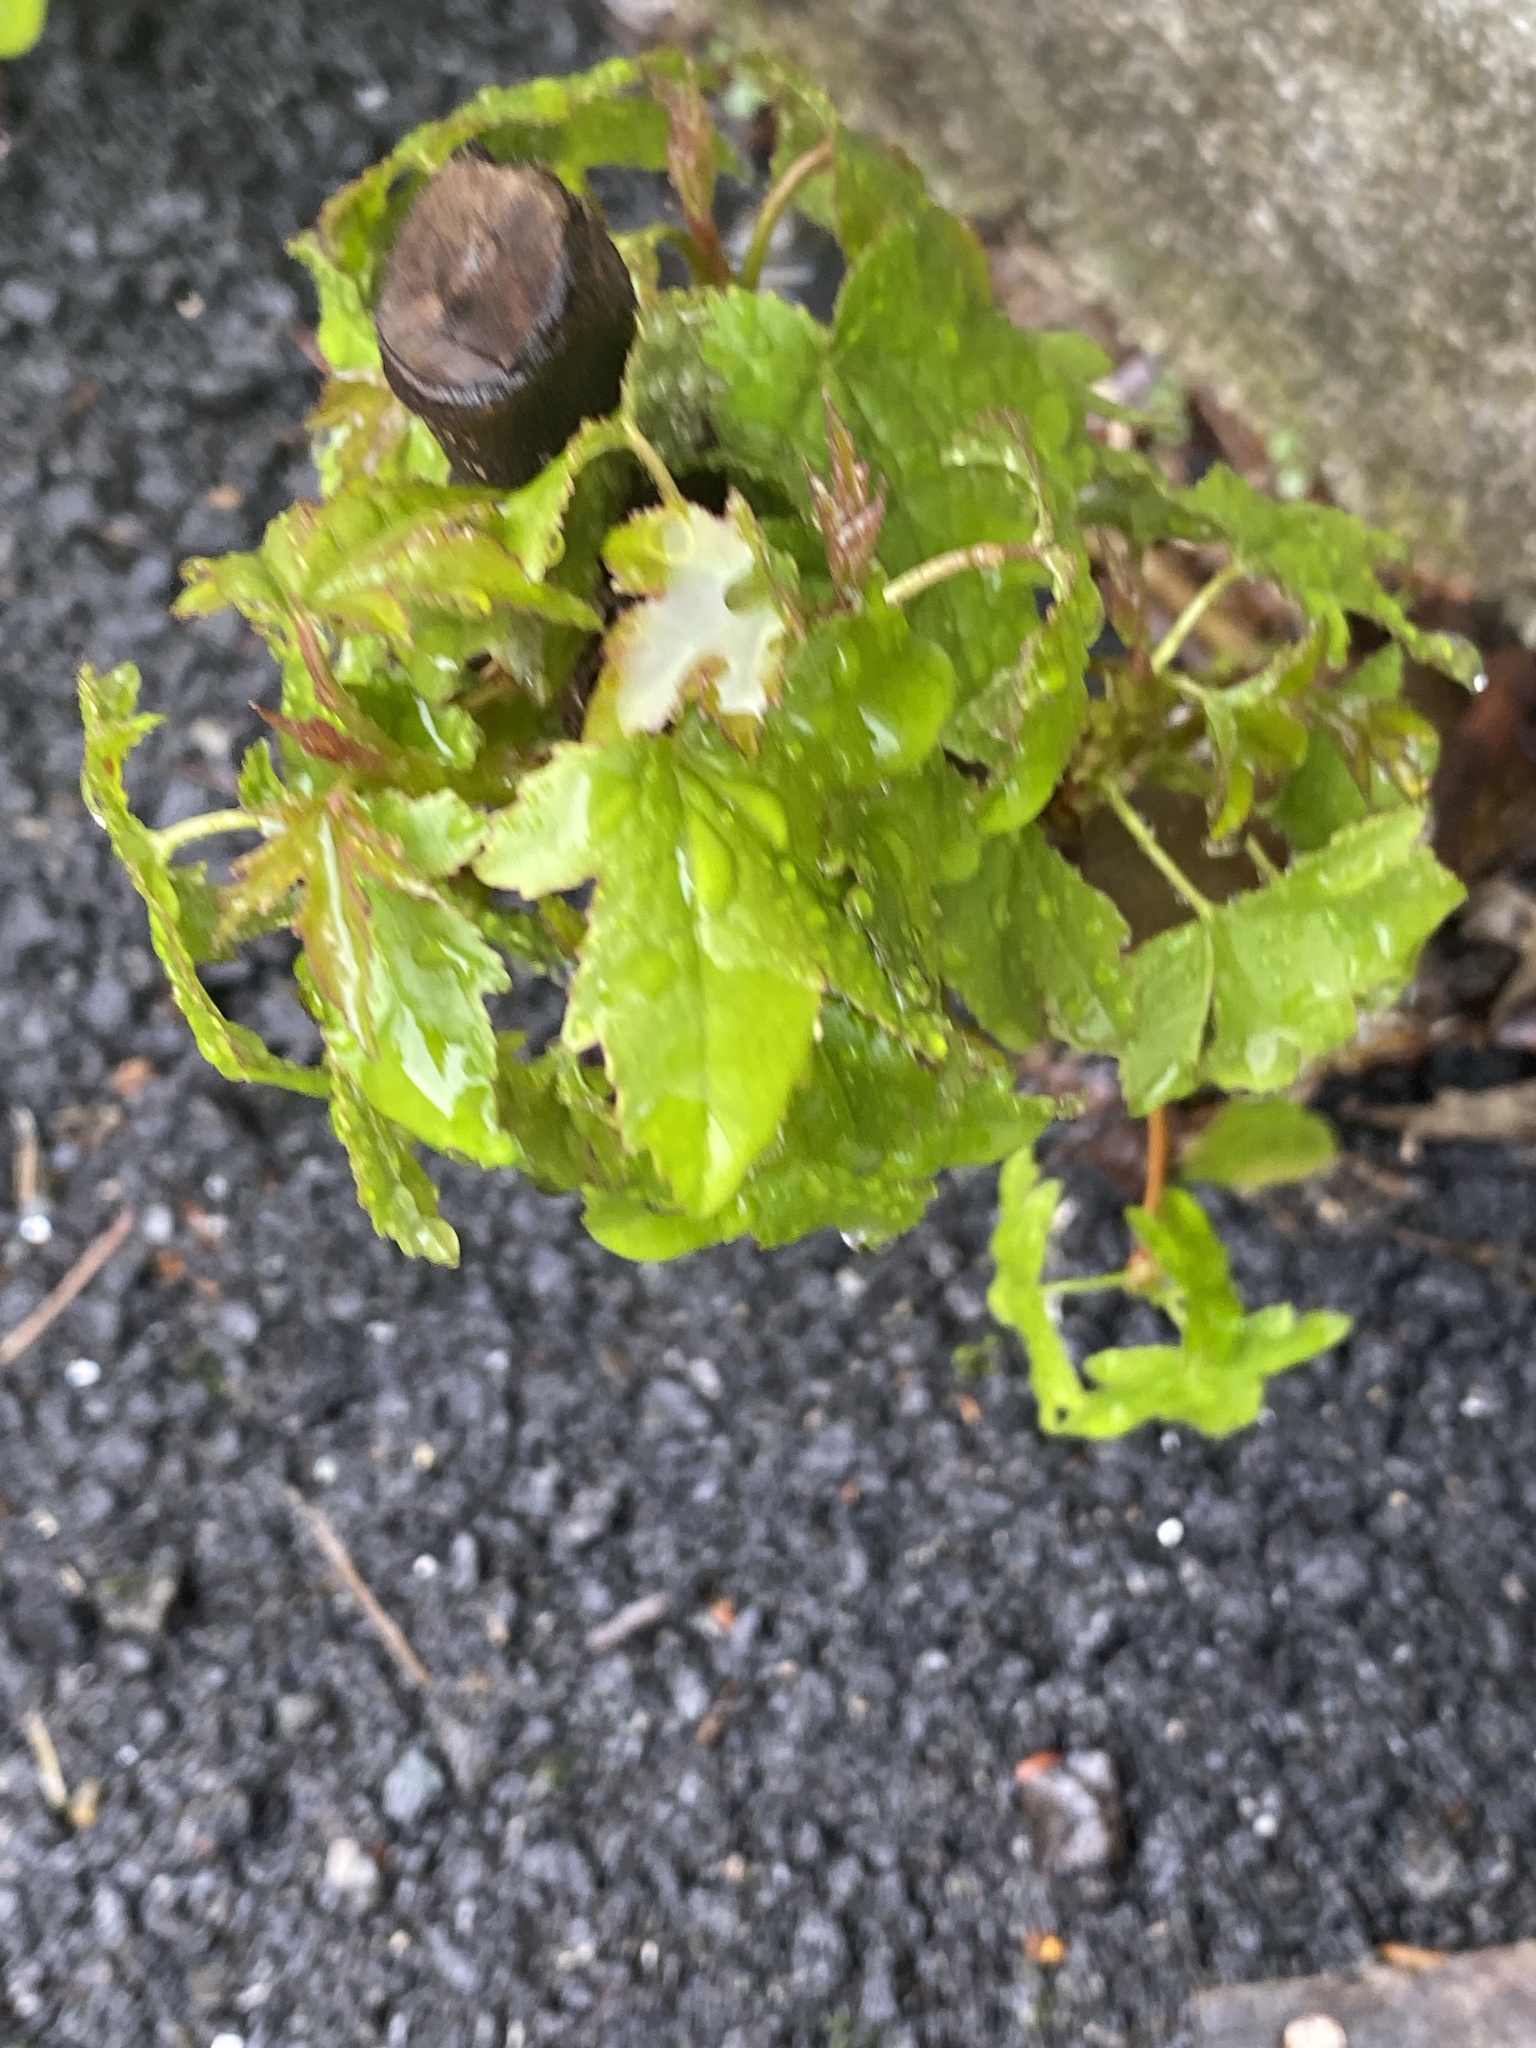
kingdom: Plantae
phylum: Tracheophyta
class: Magnoliopsida
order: Saxifragales
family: Altingiaceae
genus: Liquidambar
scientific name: Liquidambar styraciflua
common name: Sweet gum
